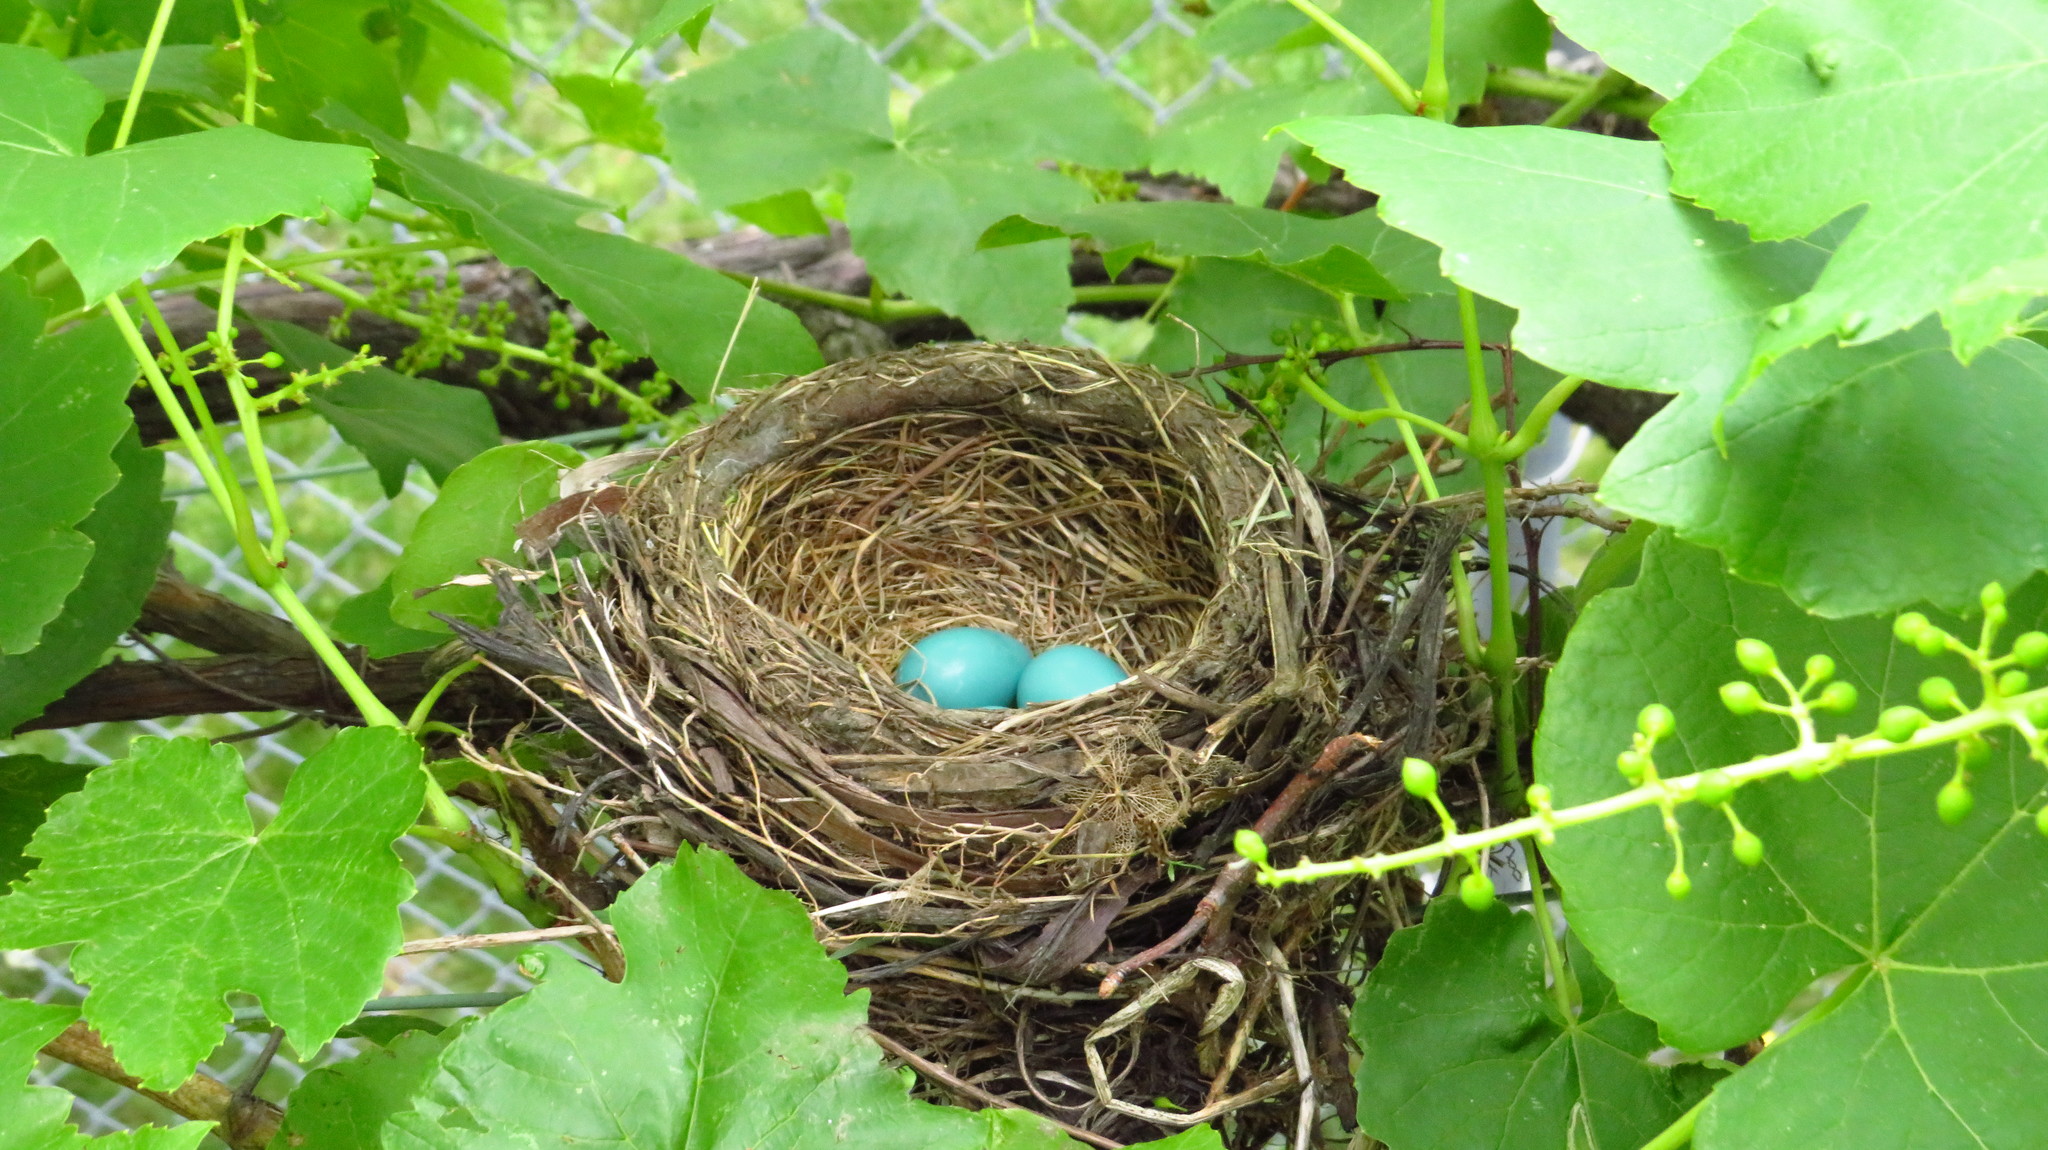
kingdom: Animalia
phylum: Chordata
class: Aves
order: Passeriformes
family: Turdidae
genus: Turdus
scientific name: Turdus migratorius
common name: American robin
